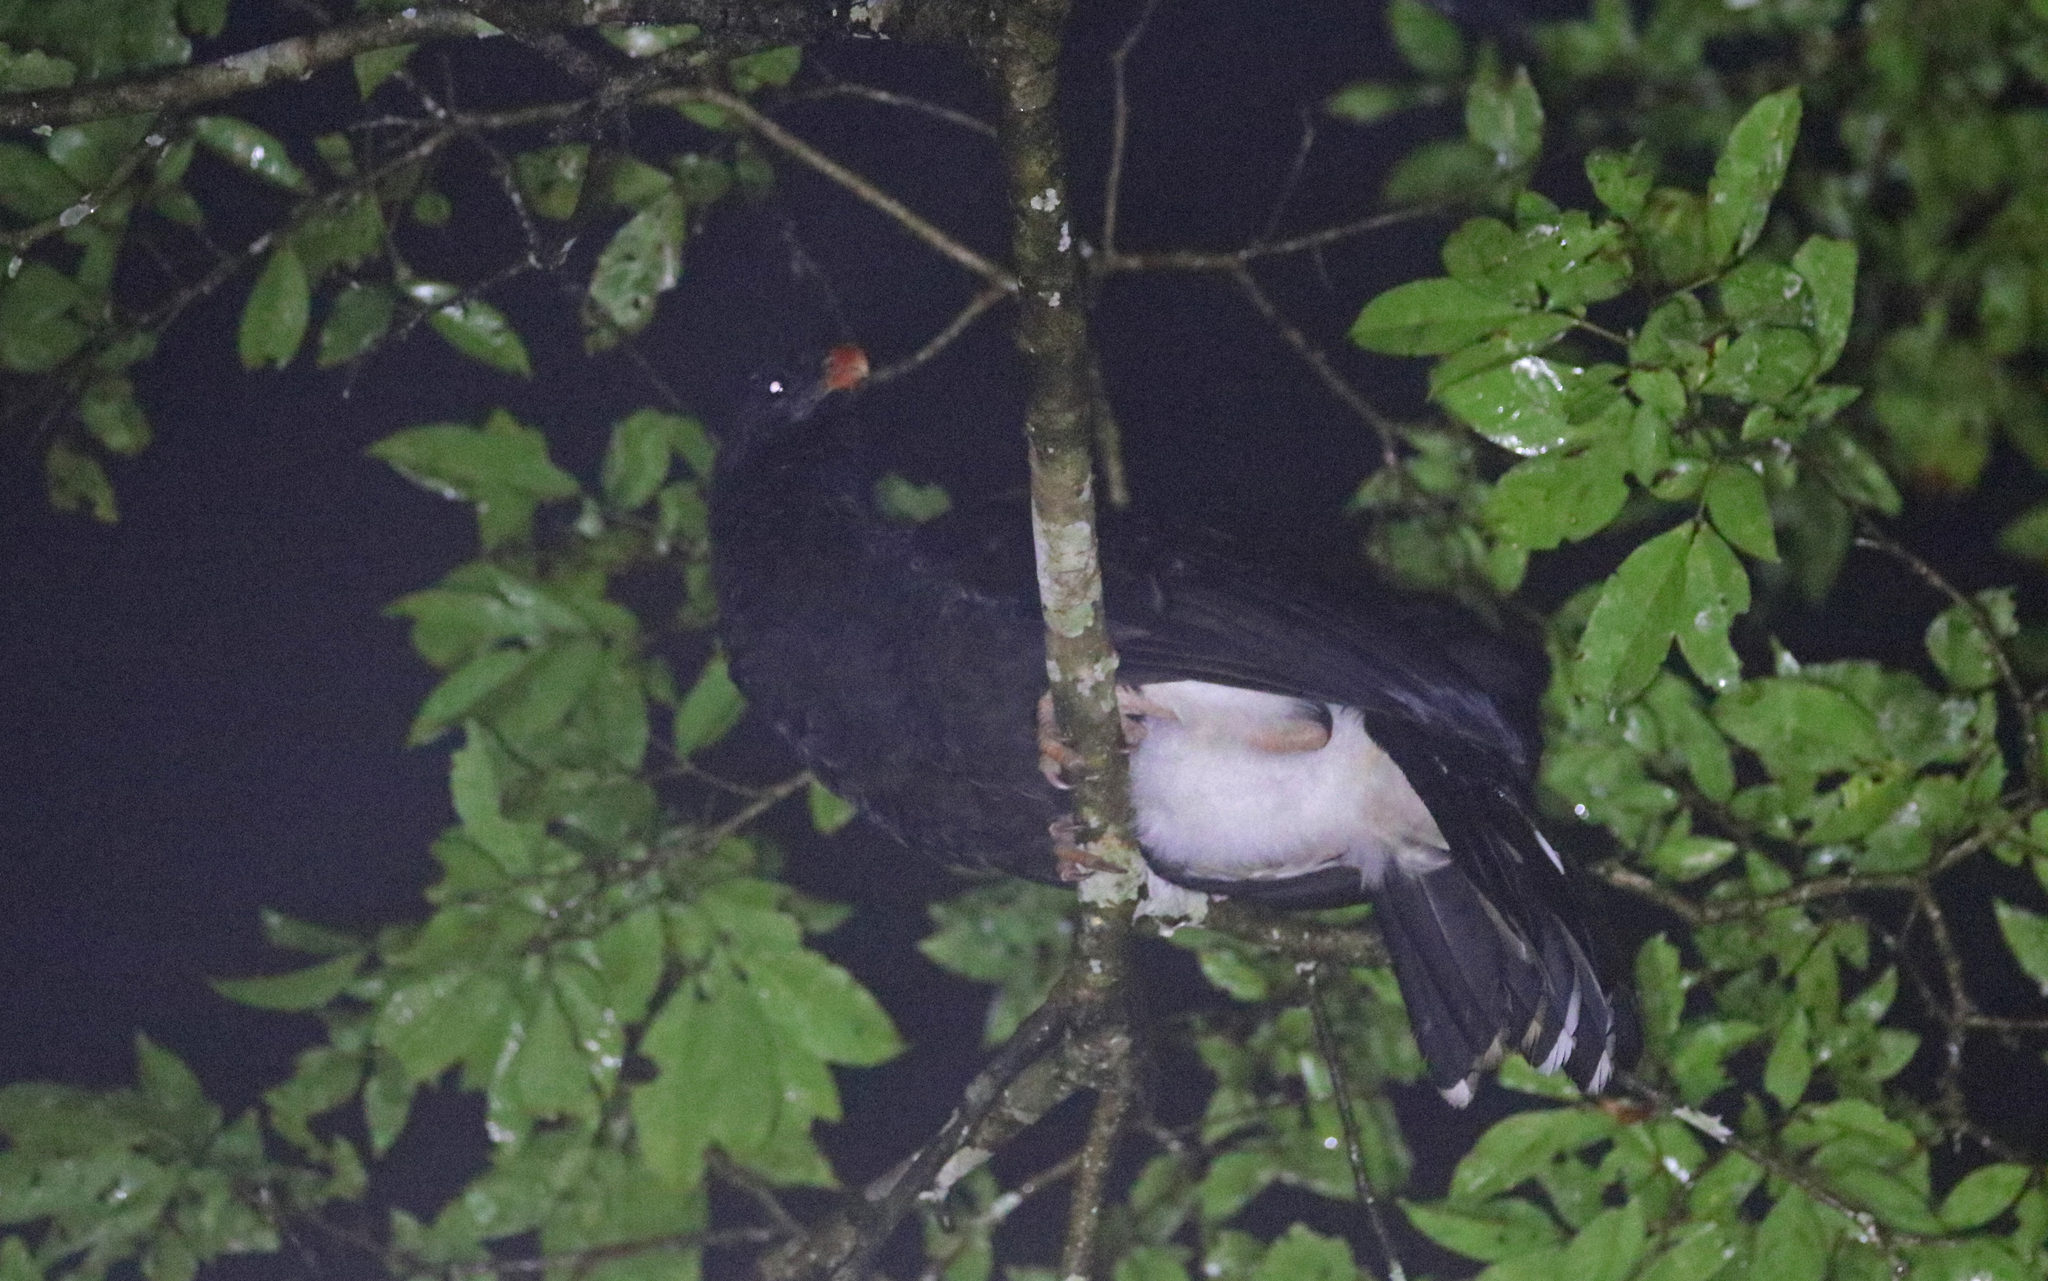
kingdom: Animalia
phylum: Chordata
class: Aves
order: Galliformes
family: Cracidae
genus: Mitu
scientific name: Mitu salvini
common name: Salvin's curassow
